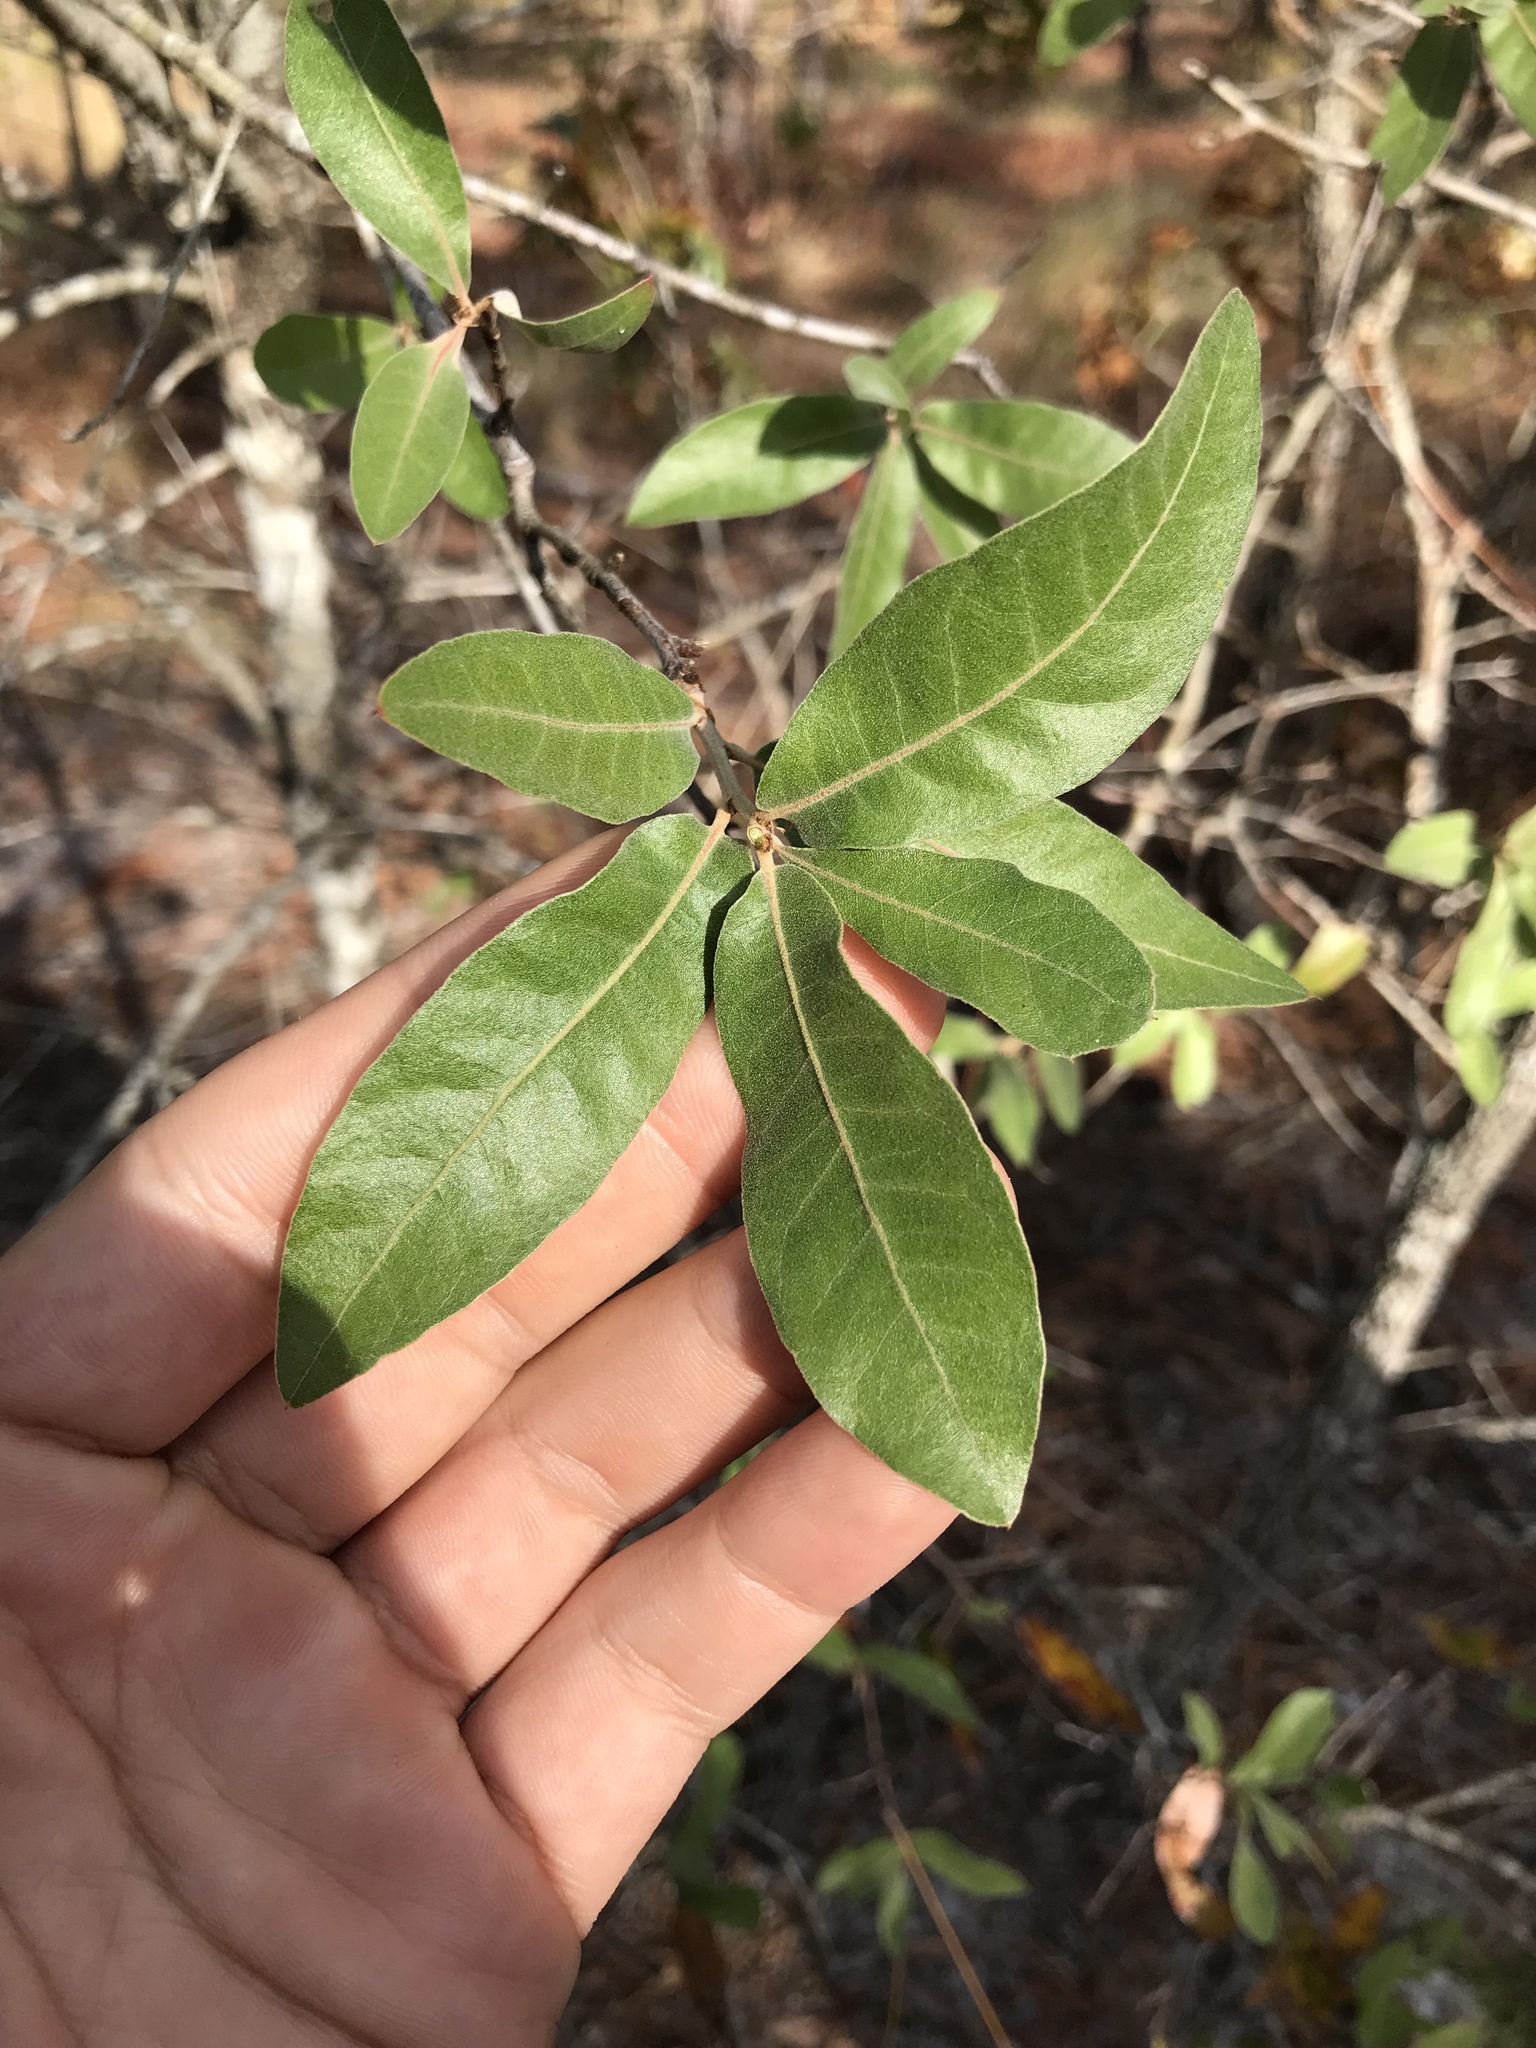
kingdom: Plantae
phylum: Tracheophyta
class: Magnoliopsida
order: Fagales
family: Fagaceae
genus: Quercus
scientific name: Quercus virginiana
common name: Southern live oak
